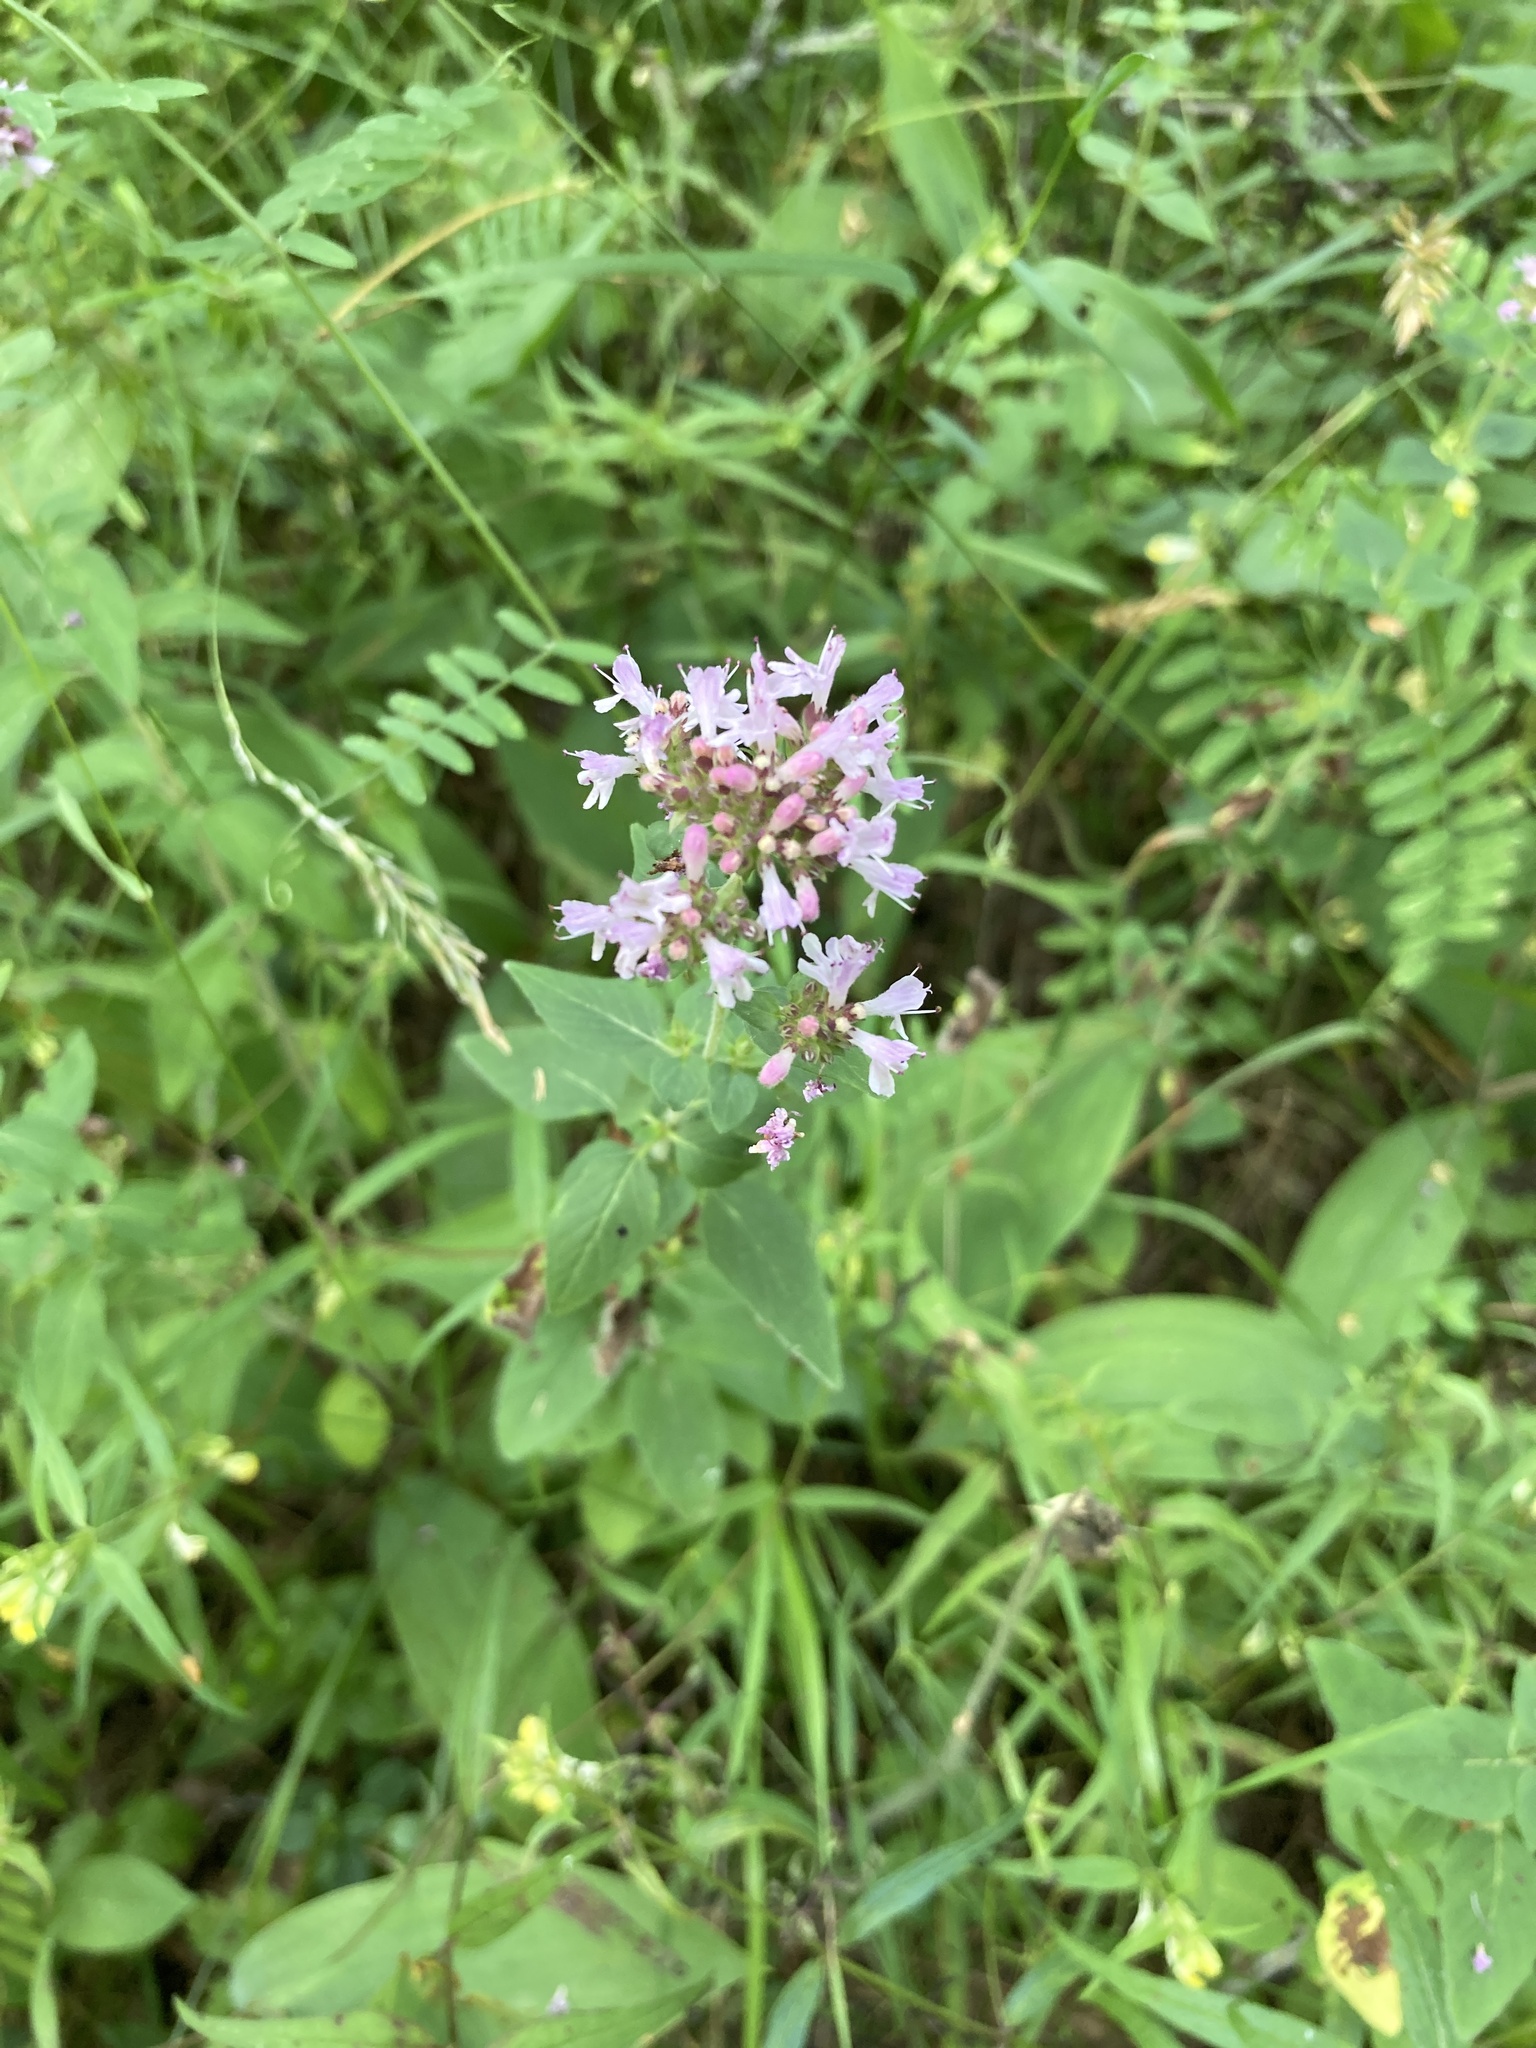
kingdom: Plantae
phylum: Tracheophyta
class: Magnoliopsida
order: Lamiales
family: Lamiaceae
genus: Origanum
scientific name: Origanum vulgare
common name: Wild marjoram
